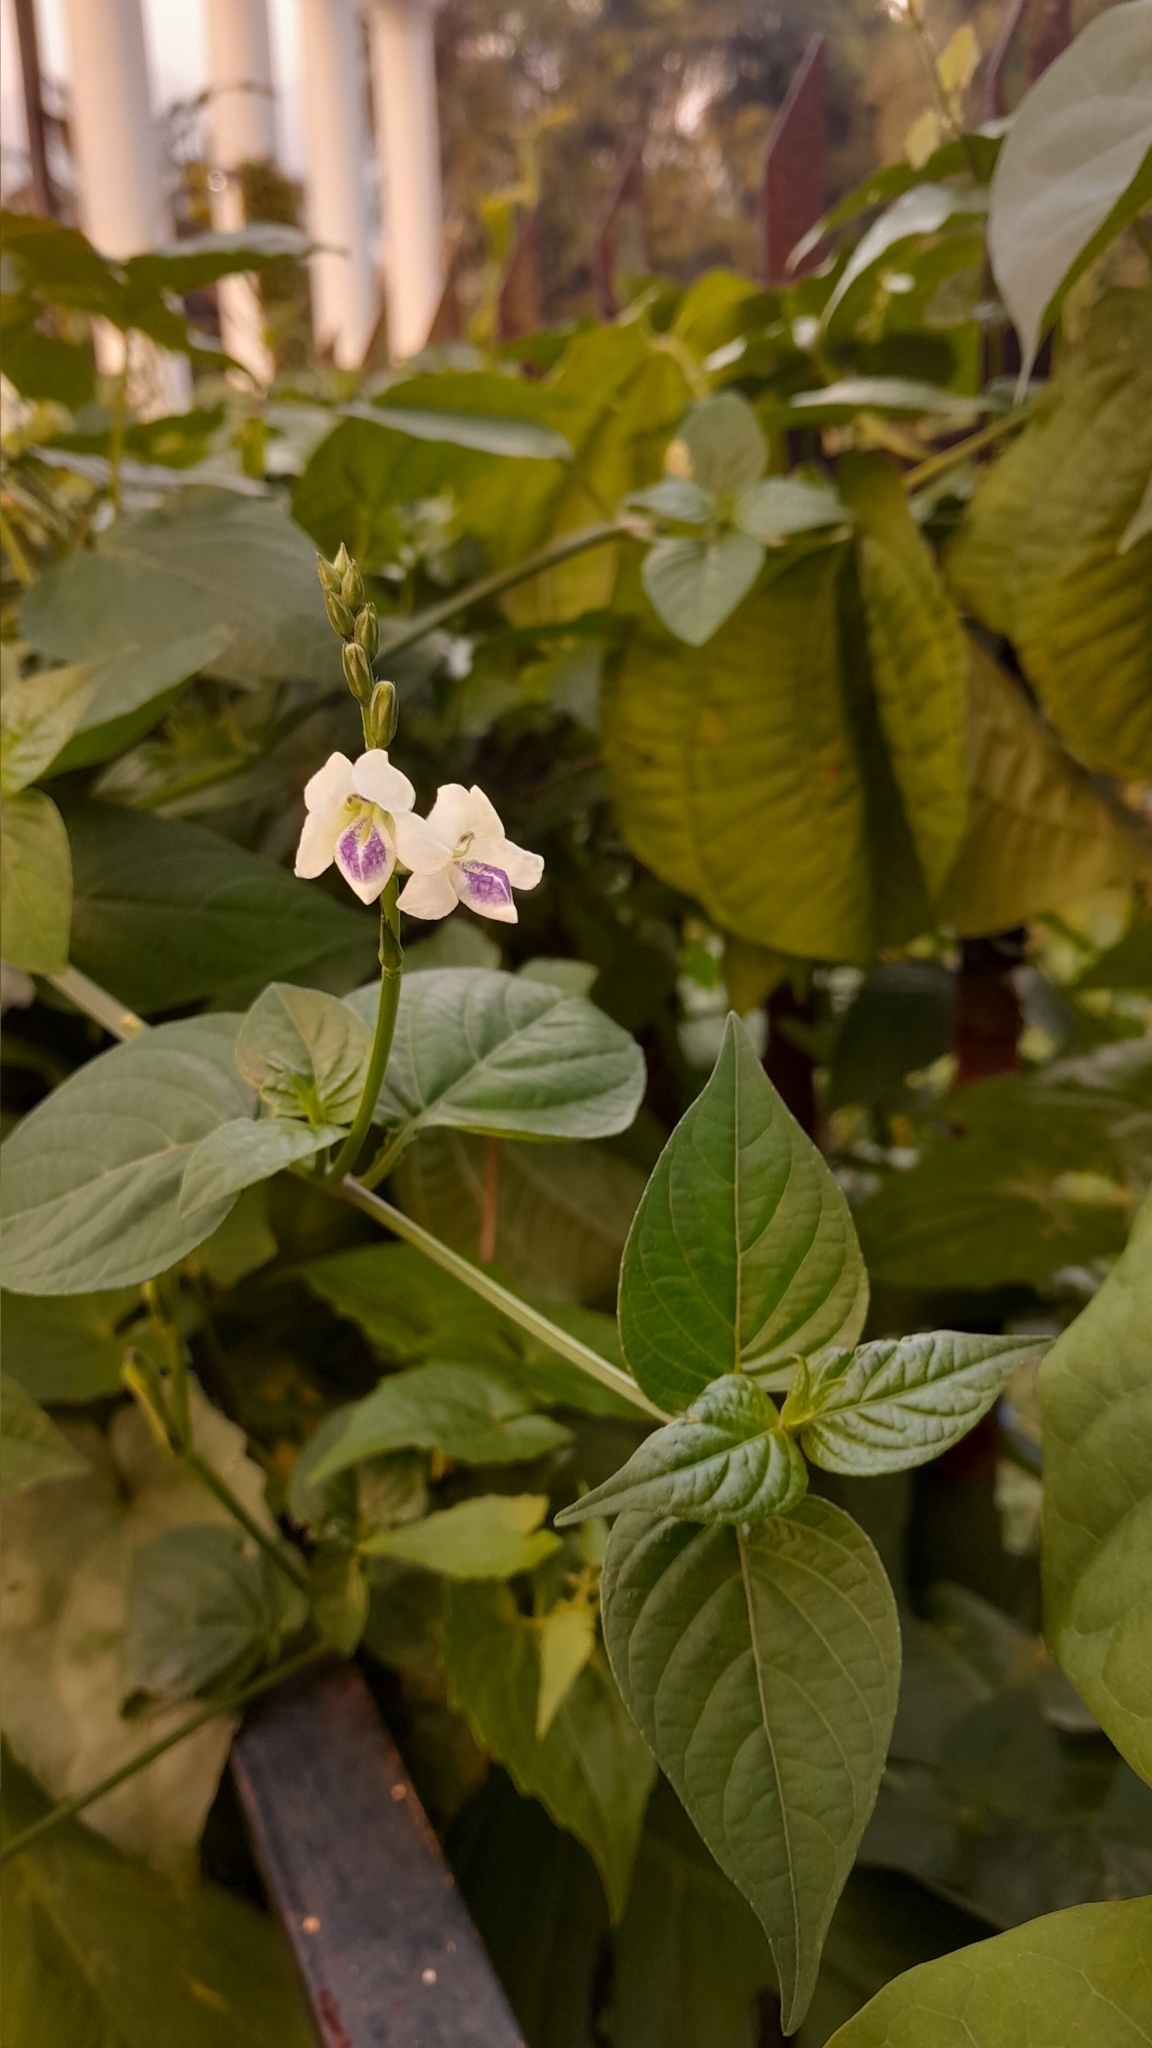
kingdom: Plantae
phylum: Tracheophyta
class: Magnoliopsida
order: Lamiales
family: Acanthaceae
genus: Asystasia
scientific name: Asystasia intrusa
